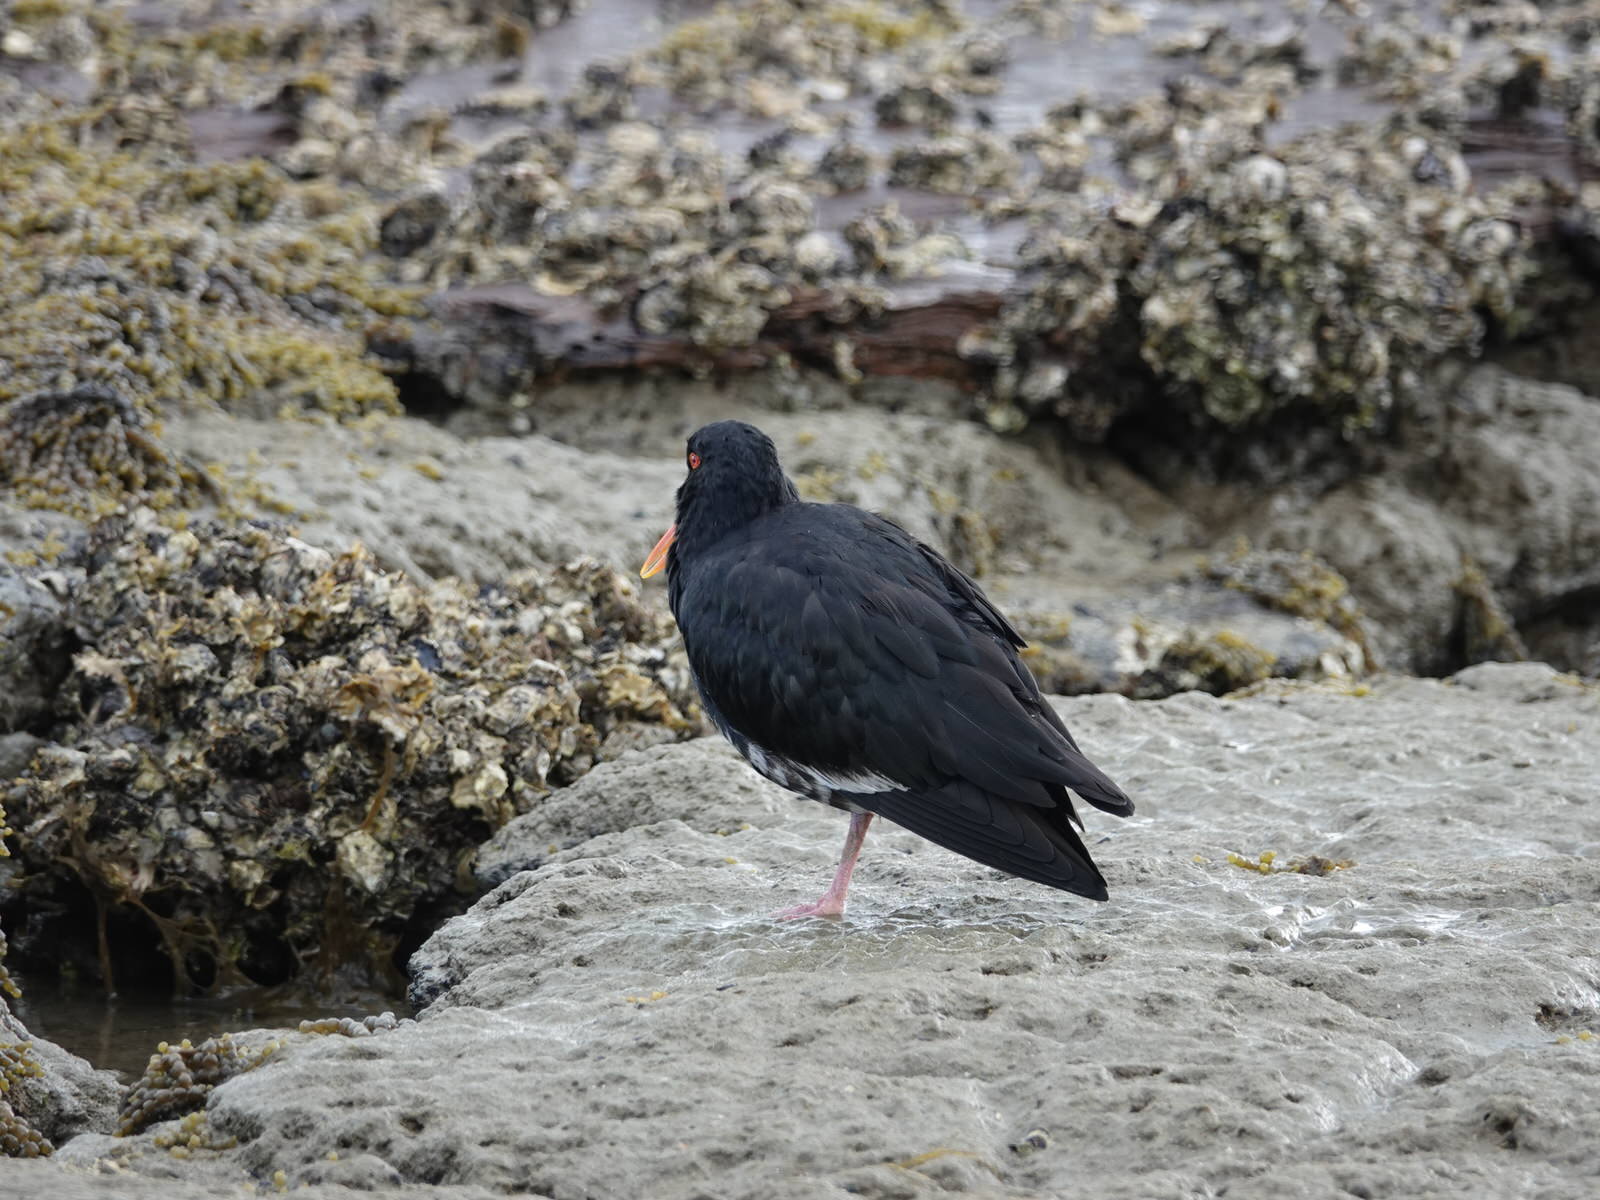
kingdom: Animalia
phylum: Chordata
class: Aves
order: Charadriiformes
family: Haematopodidae
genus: Haematopus
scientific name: Haematopus unicolor
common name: Variable oystercatcher
